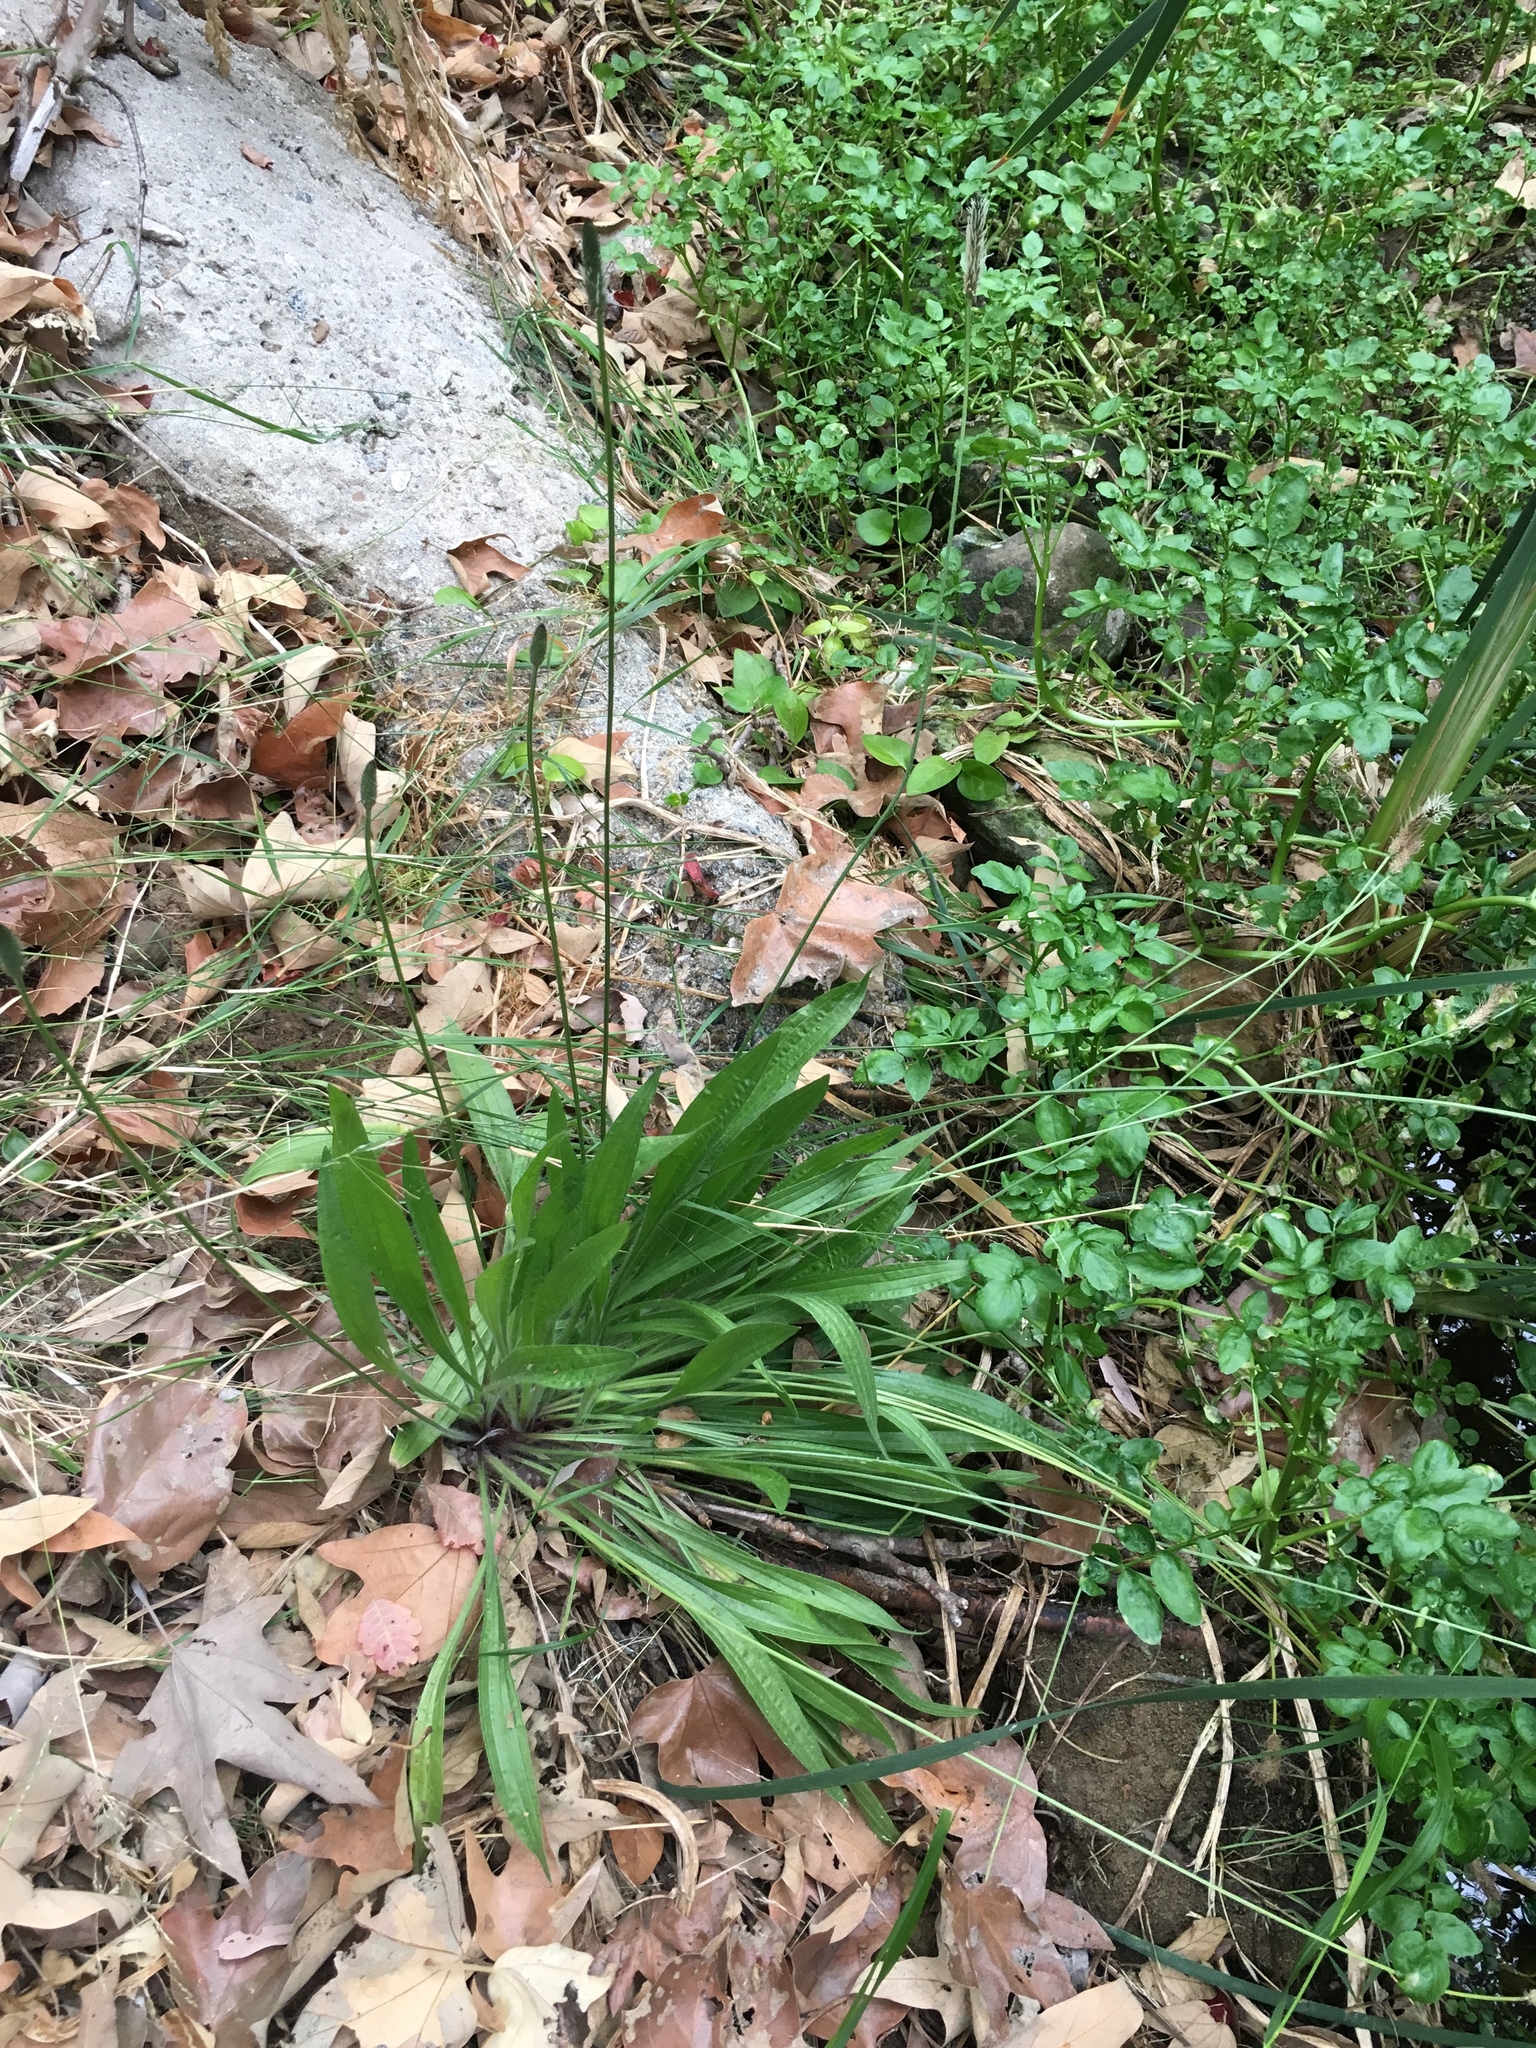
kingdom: Plantae
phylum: Tracheophyta
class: Magnoliopsida
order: Lamiales
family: Plantaginaceae
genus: Plantago
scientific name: Plantago lanceolata
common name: Ribwort plantain
